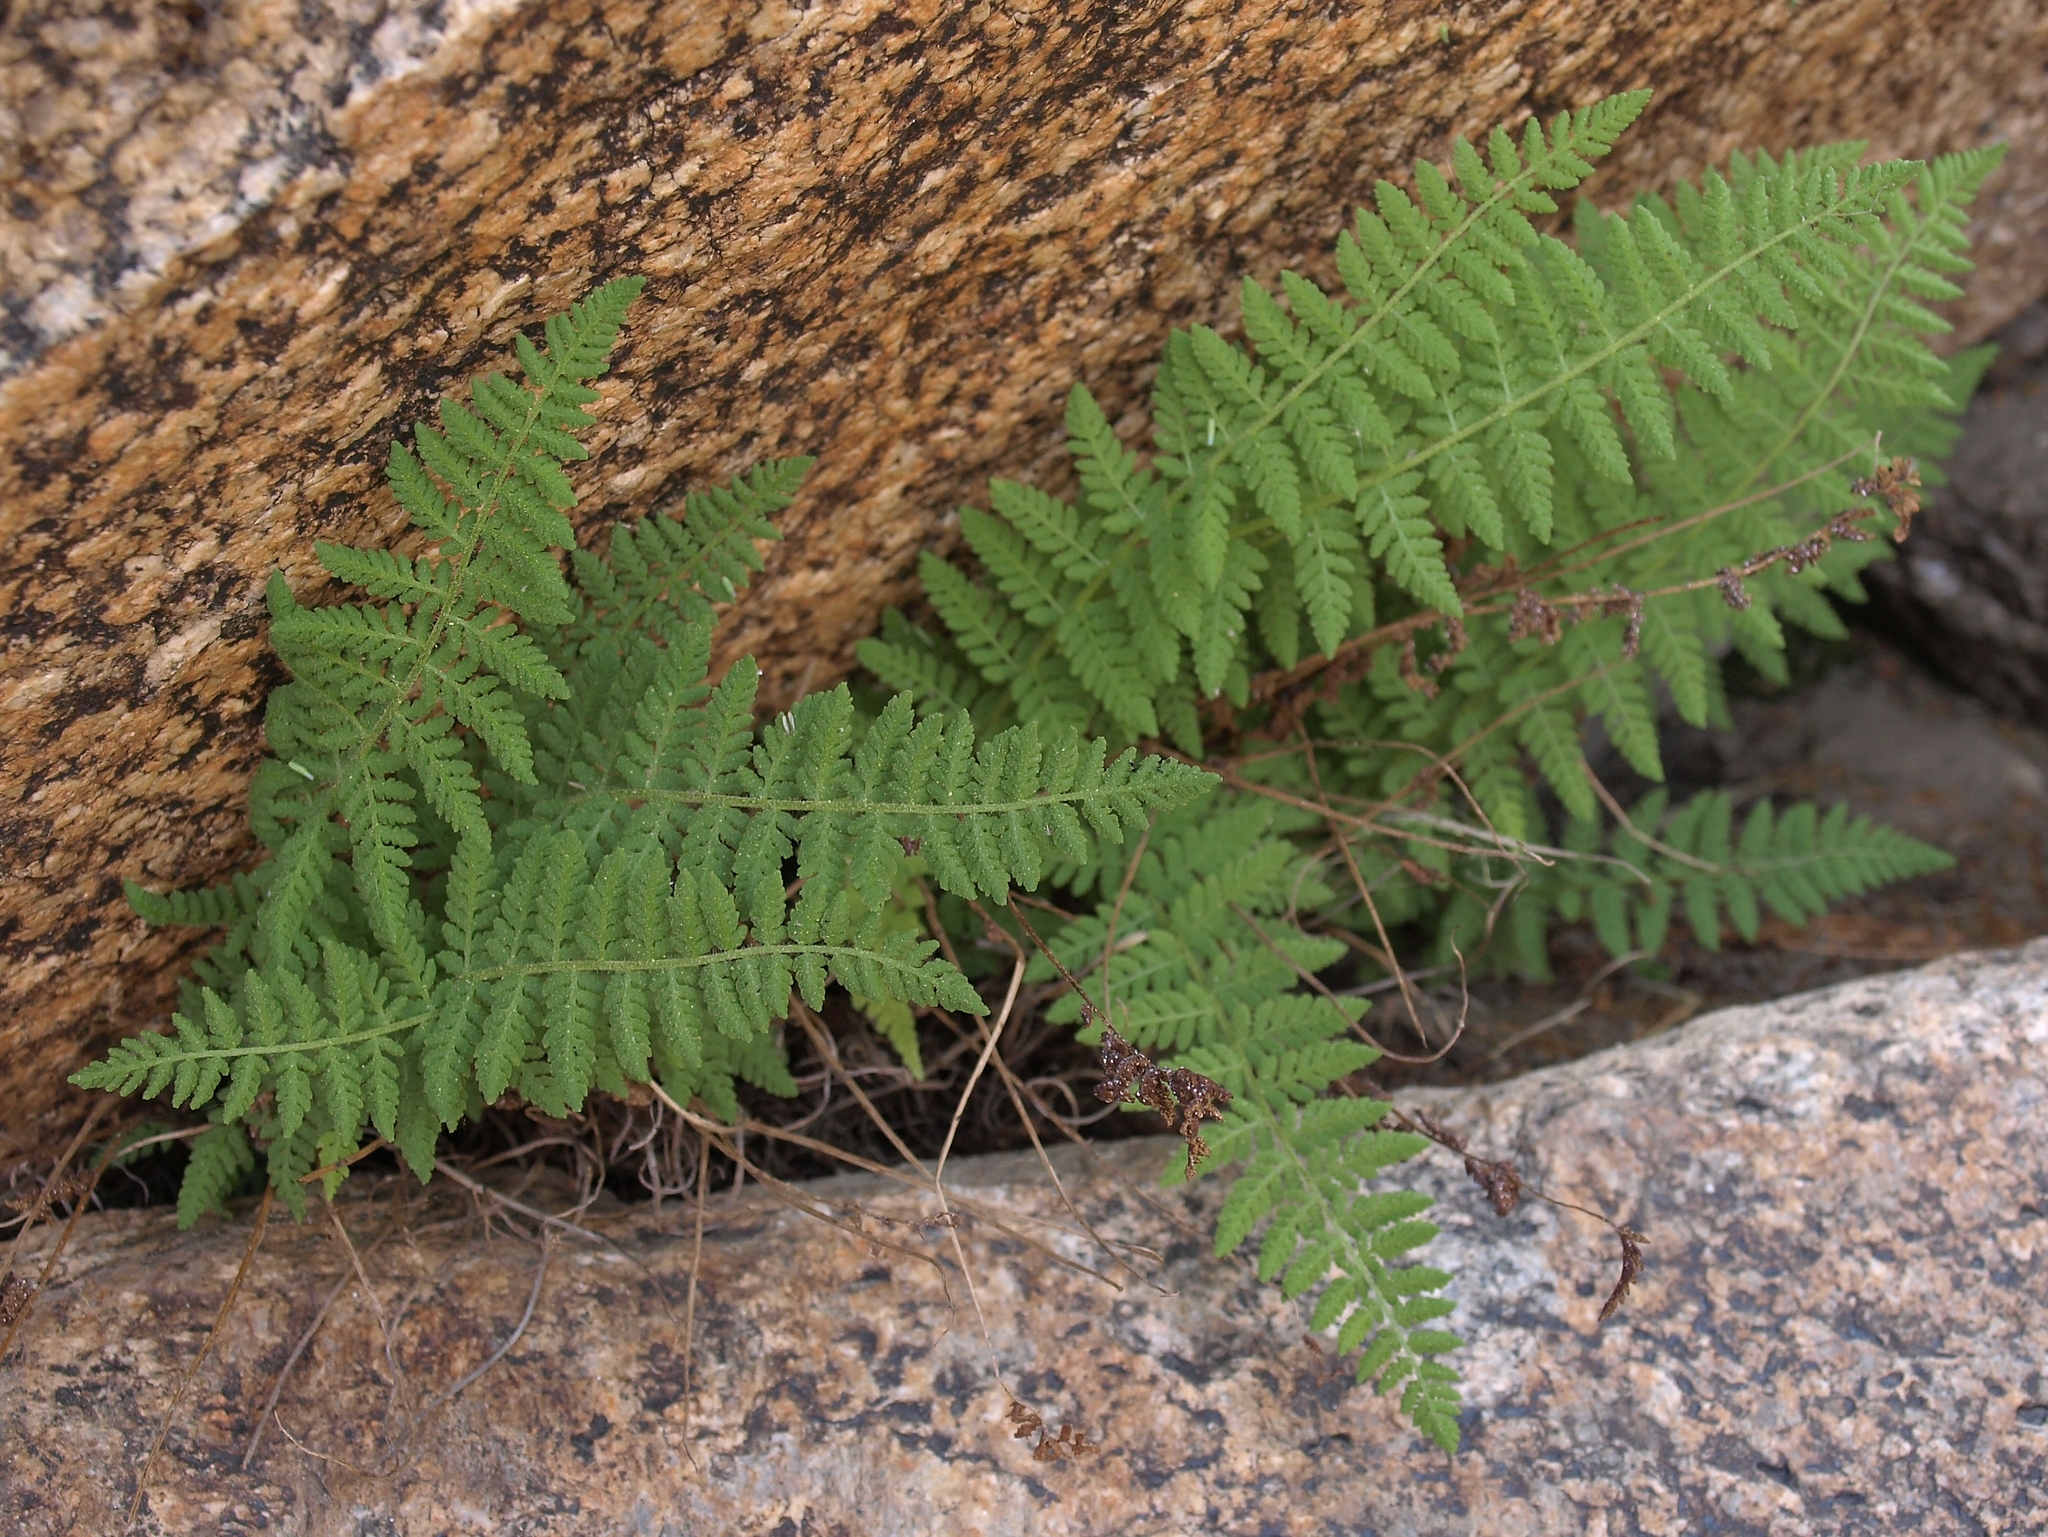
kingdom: Plantae
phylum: Tracheophyta
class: Polypodiopsida
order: Polypodiales
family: Woodsiaceae
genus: Physematium
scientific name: Physematium scopulinum
